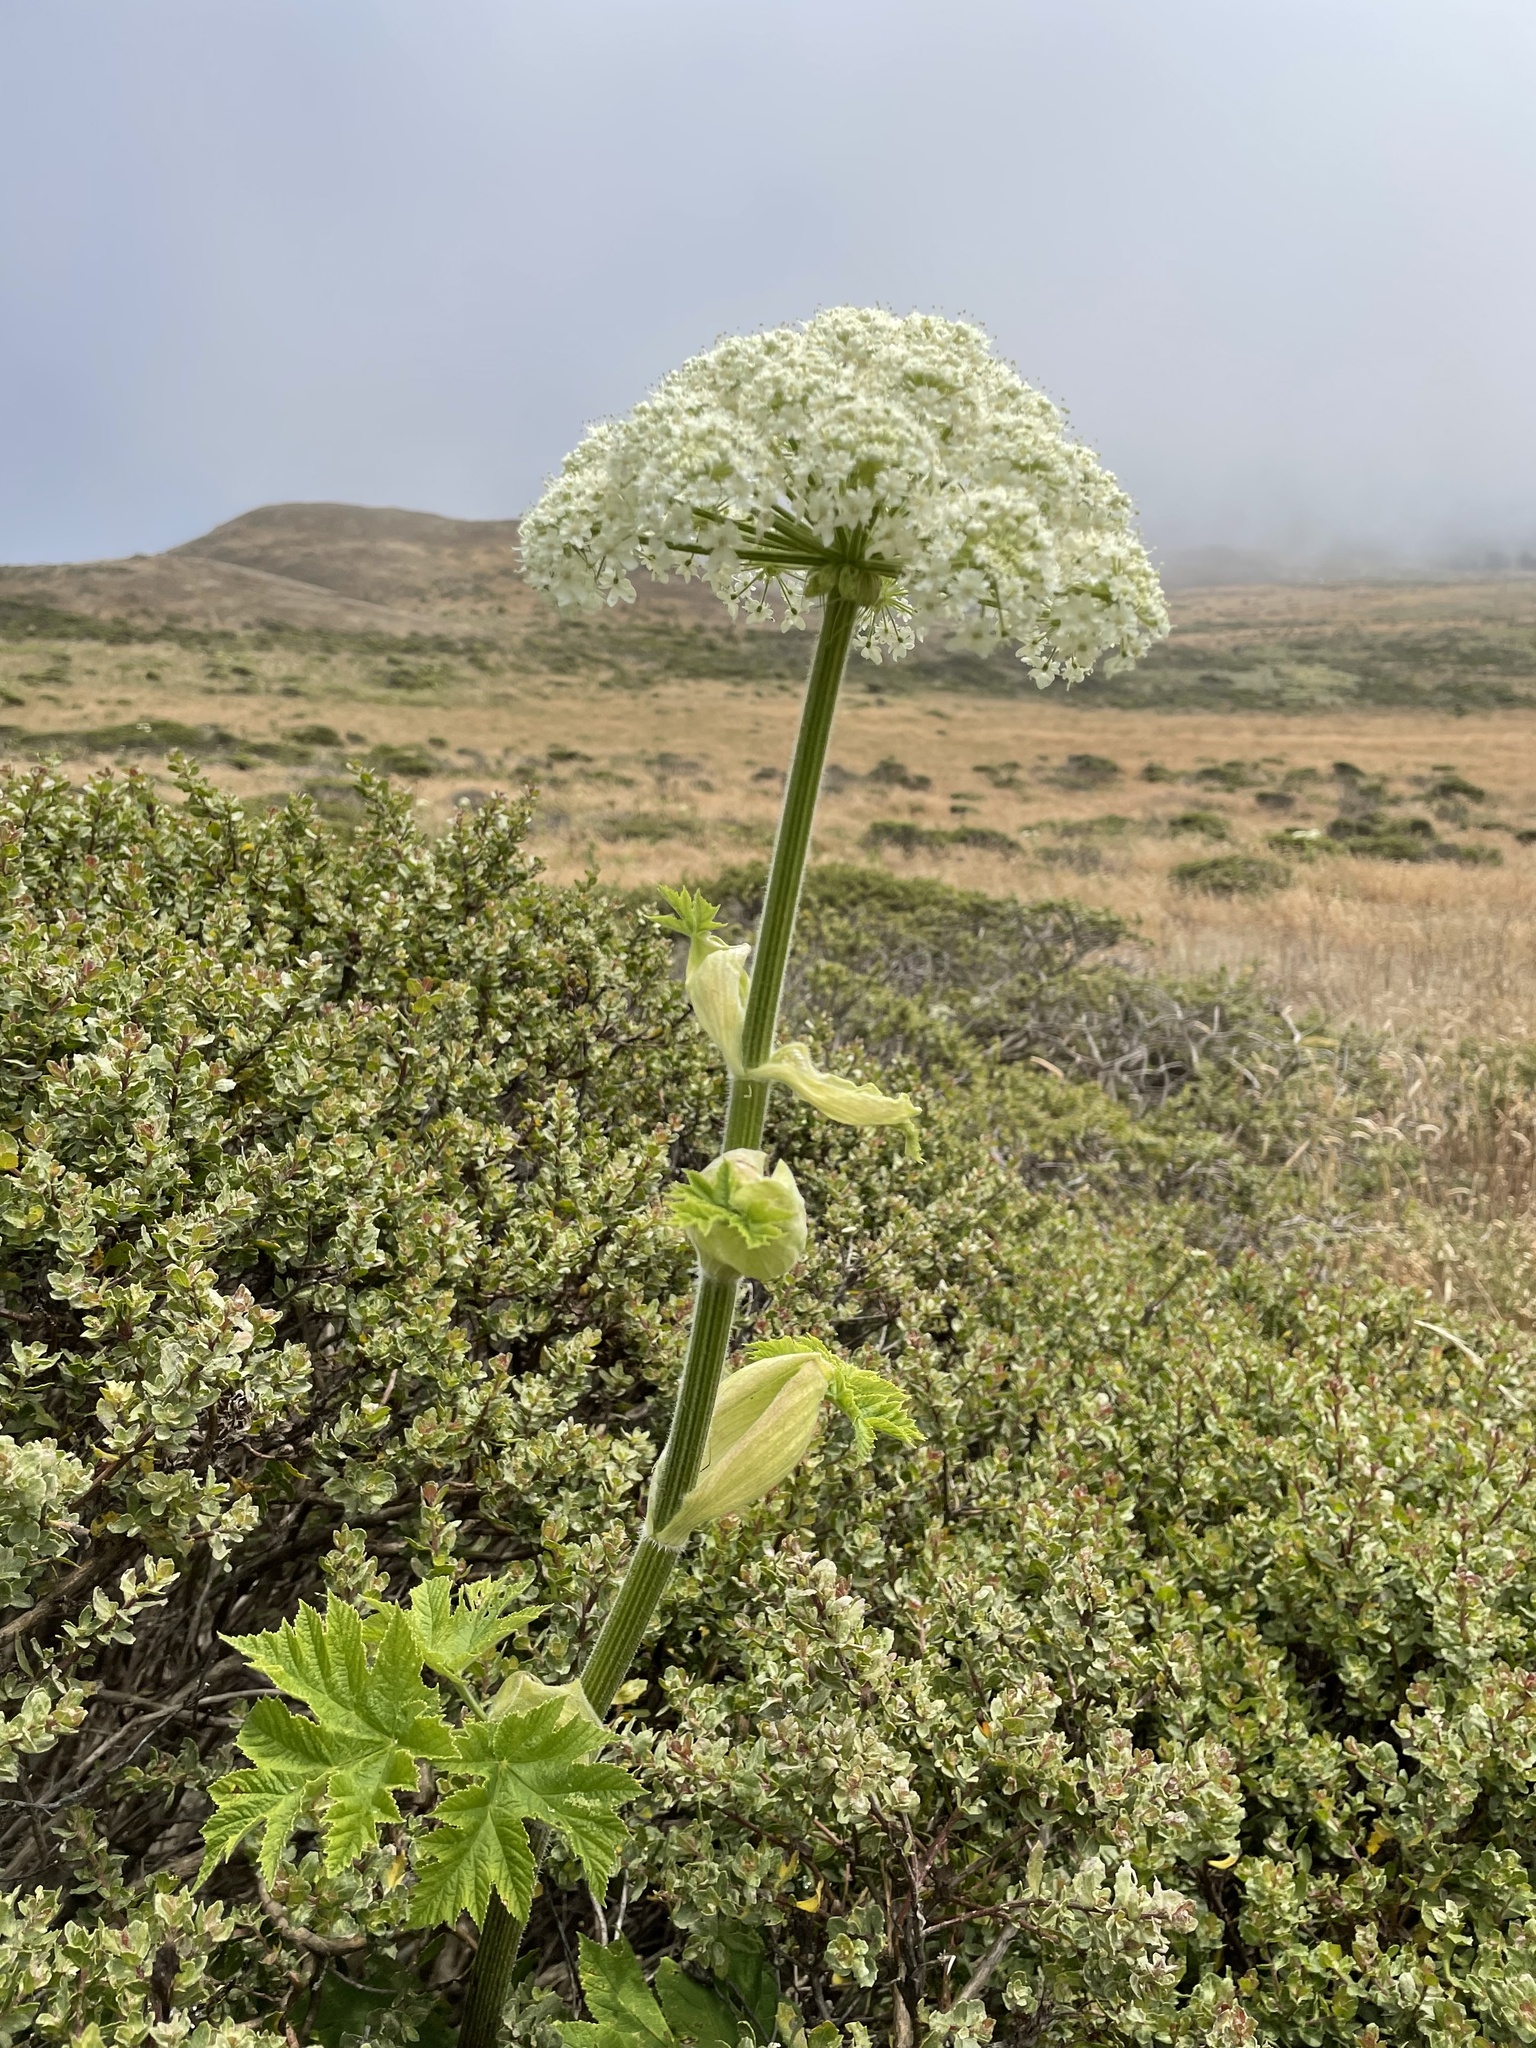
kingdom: Plantae
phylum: Tracheophyta
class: Magnoliopsida
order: Apiales
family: Apiaceae
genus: Heracleum
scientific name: Heracleum maximum
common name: American cow parsnip
